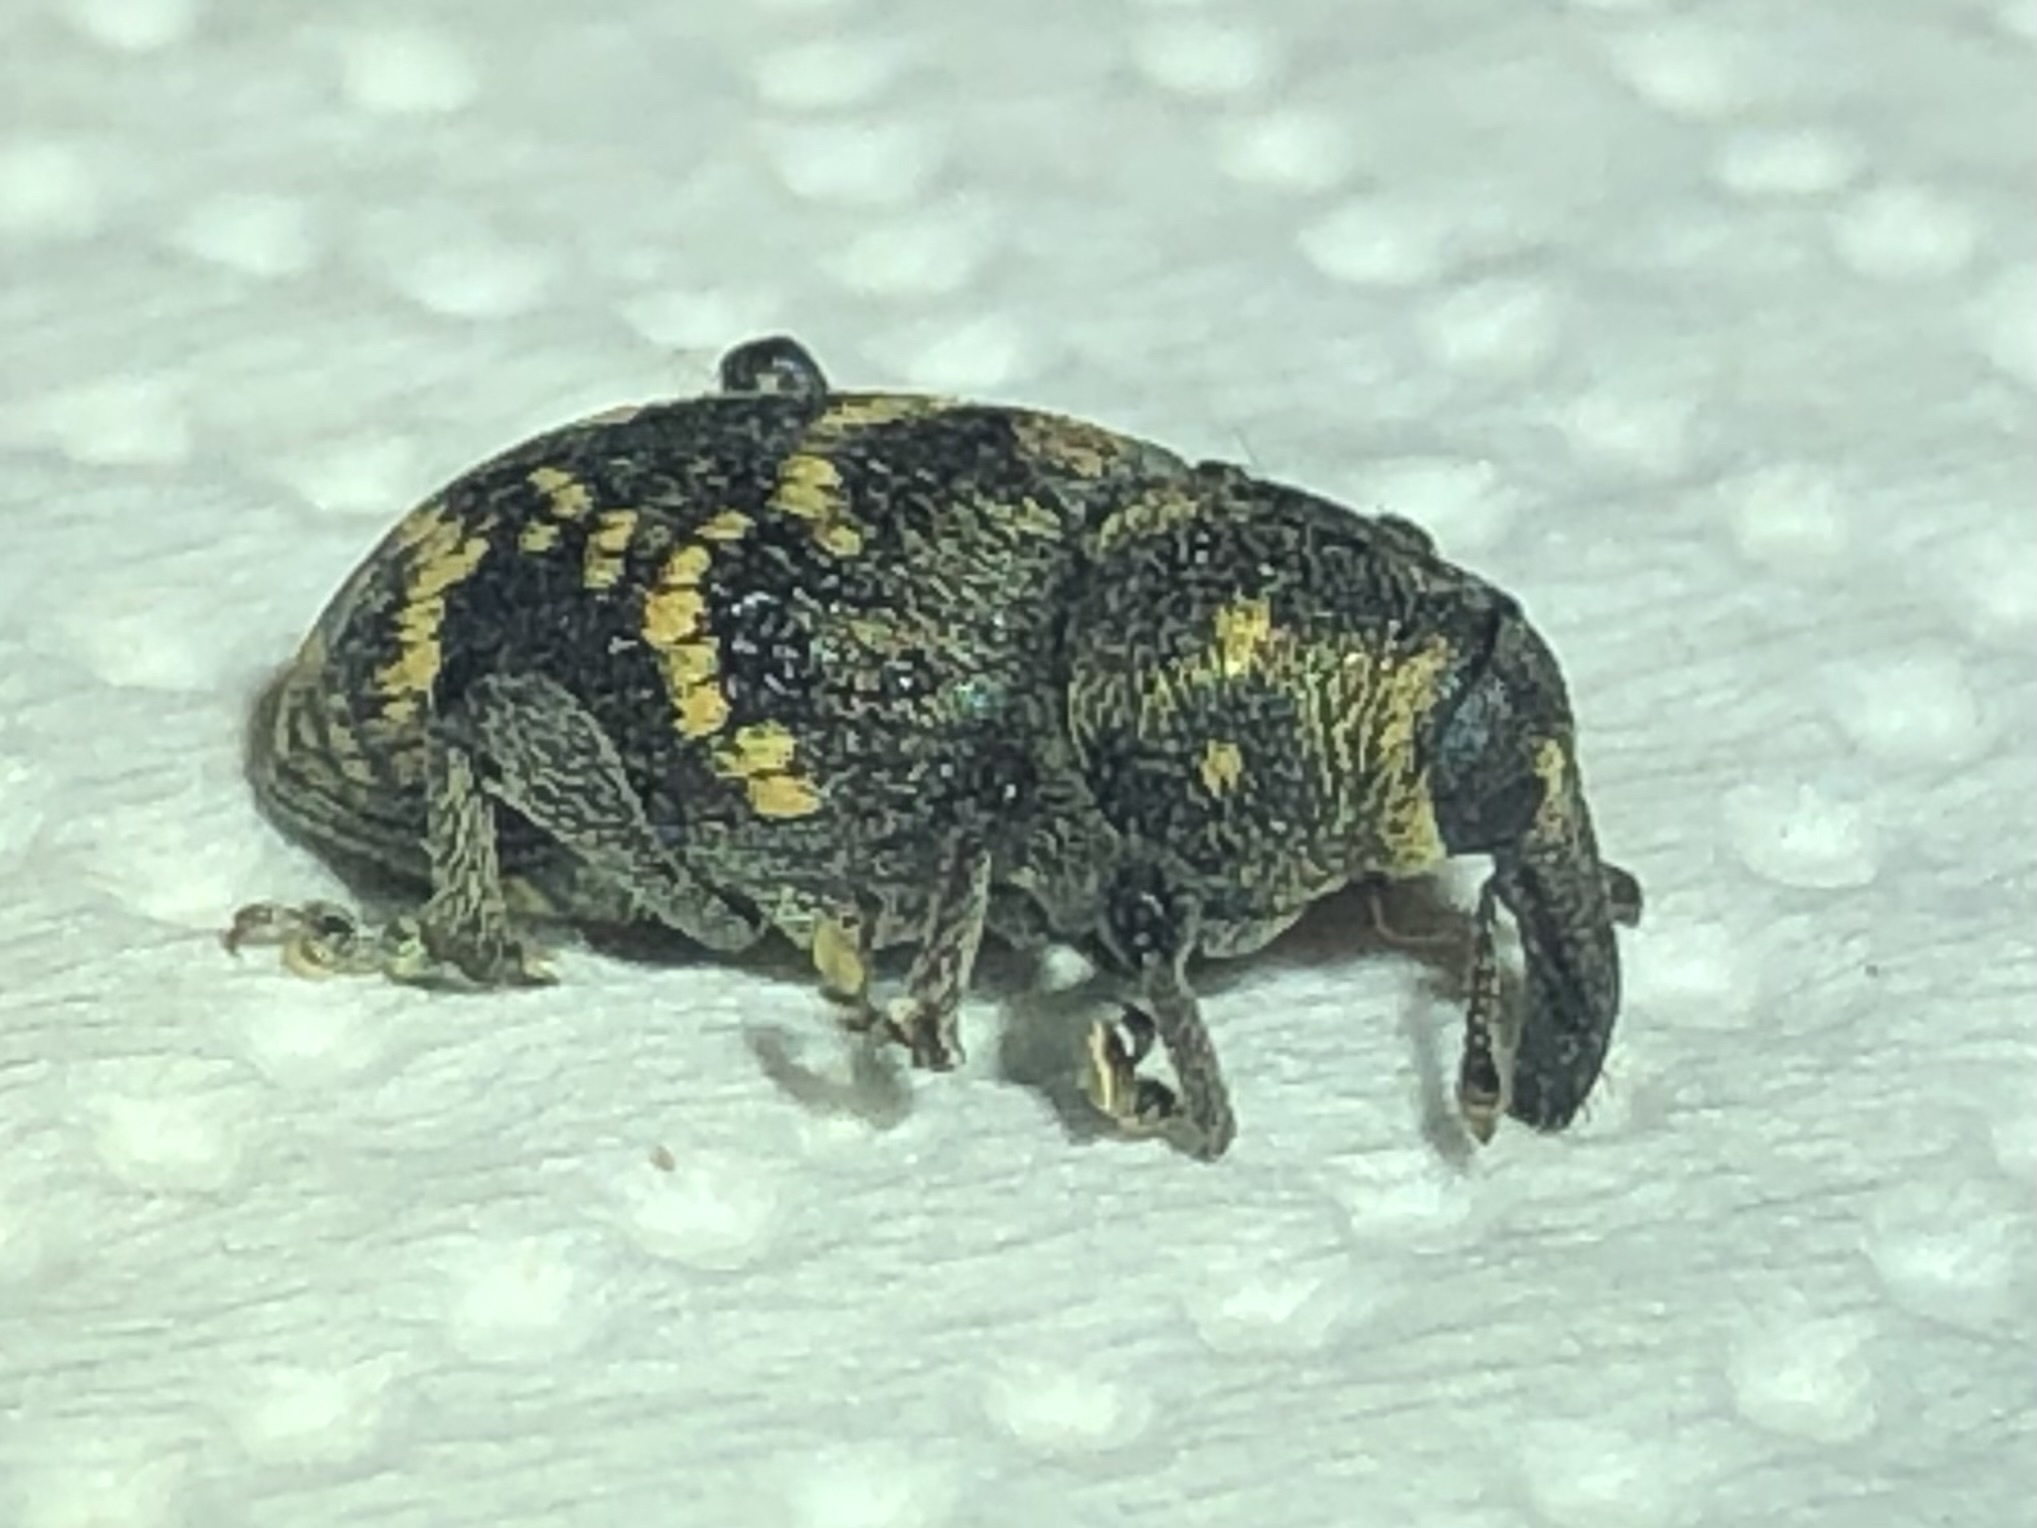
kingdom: Animalia
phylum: Arthropoda
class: Insecta
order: Coleoptera
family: Curculionidae
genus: Hylobius
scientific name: Hylobius abietis
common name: Large pine weevil
